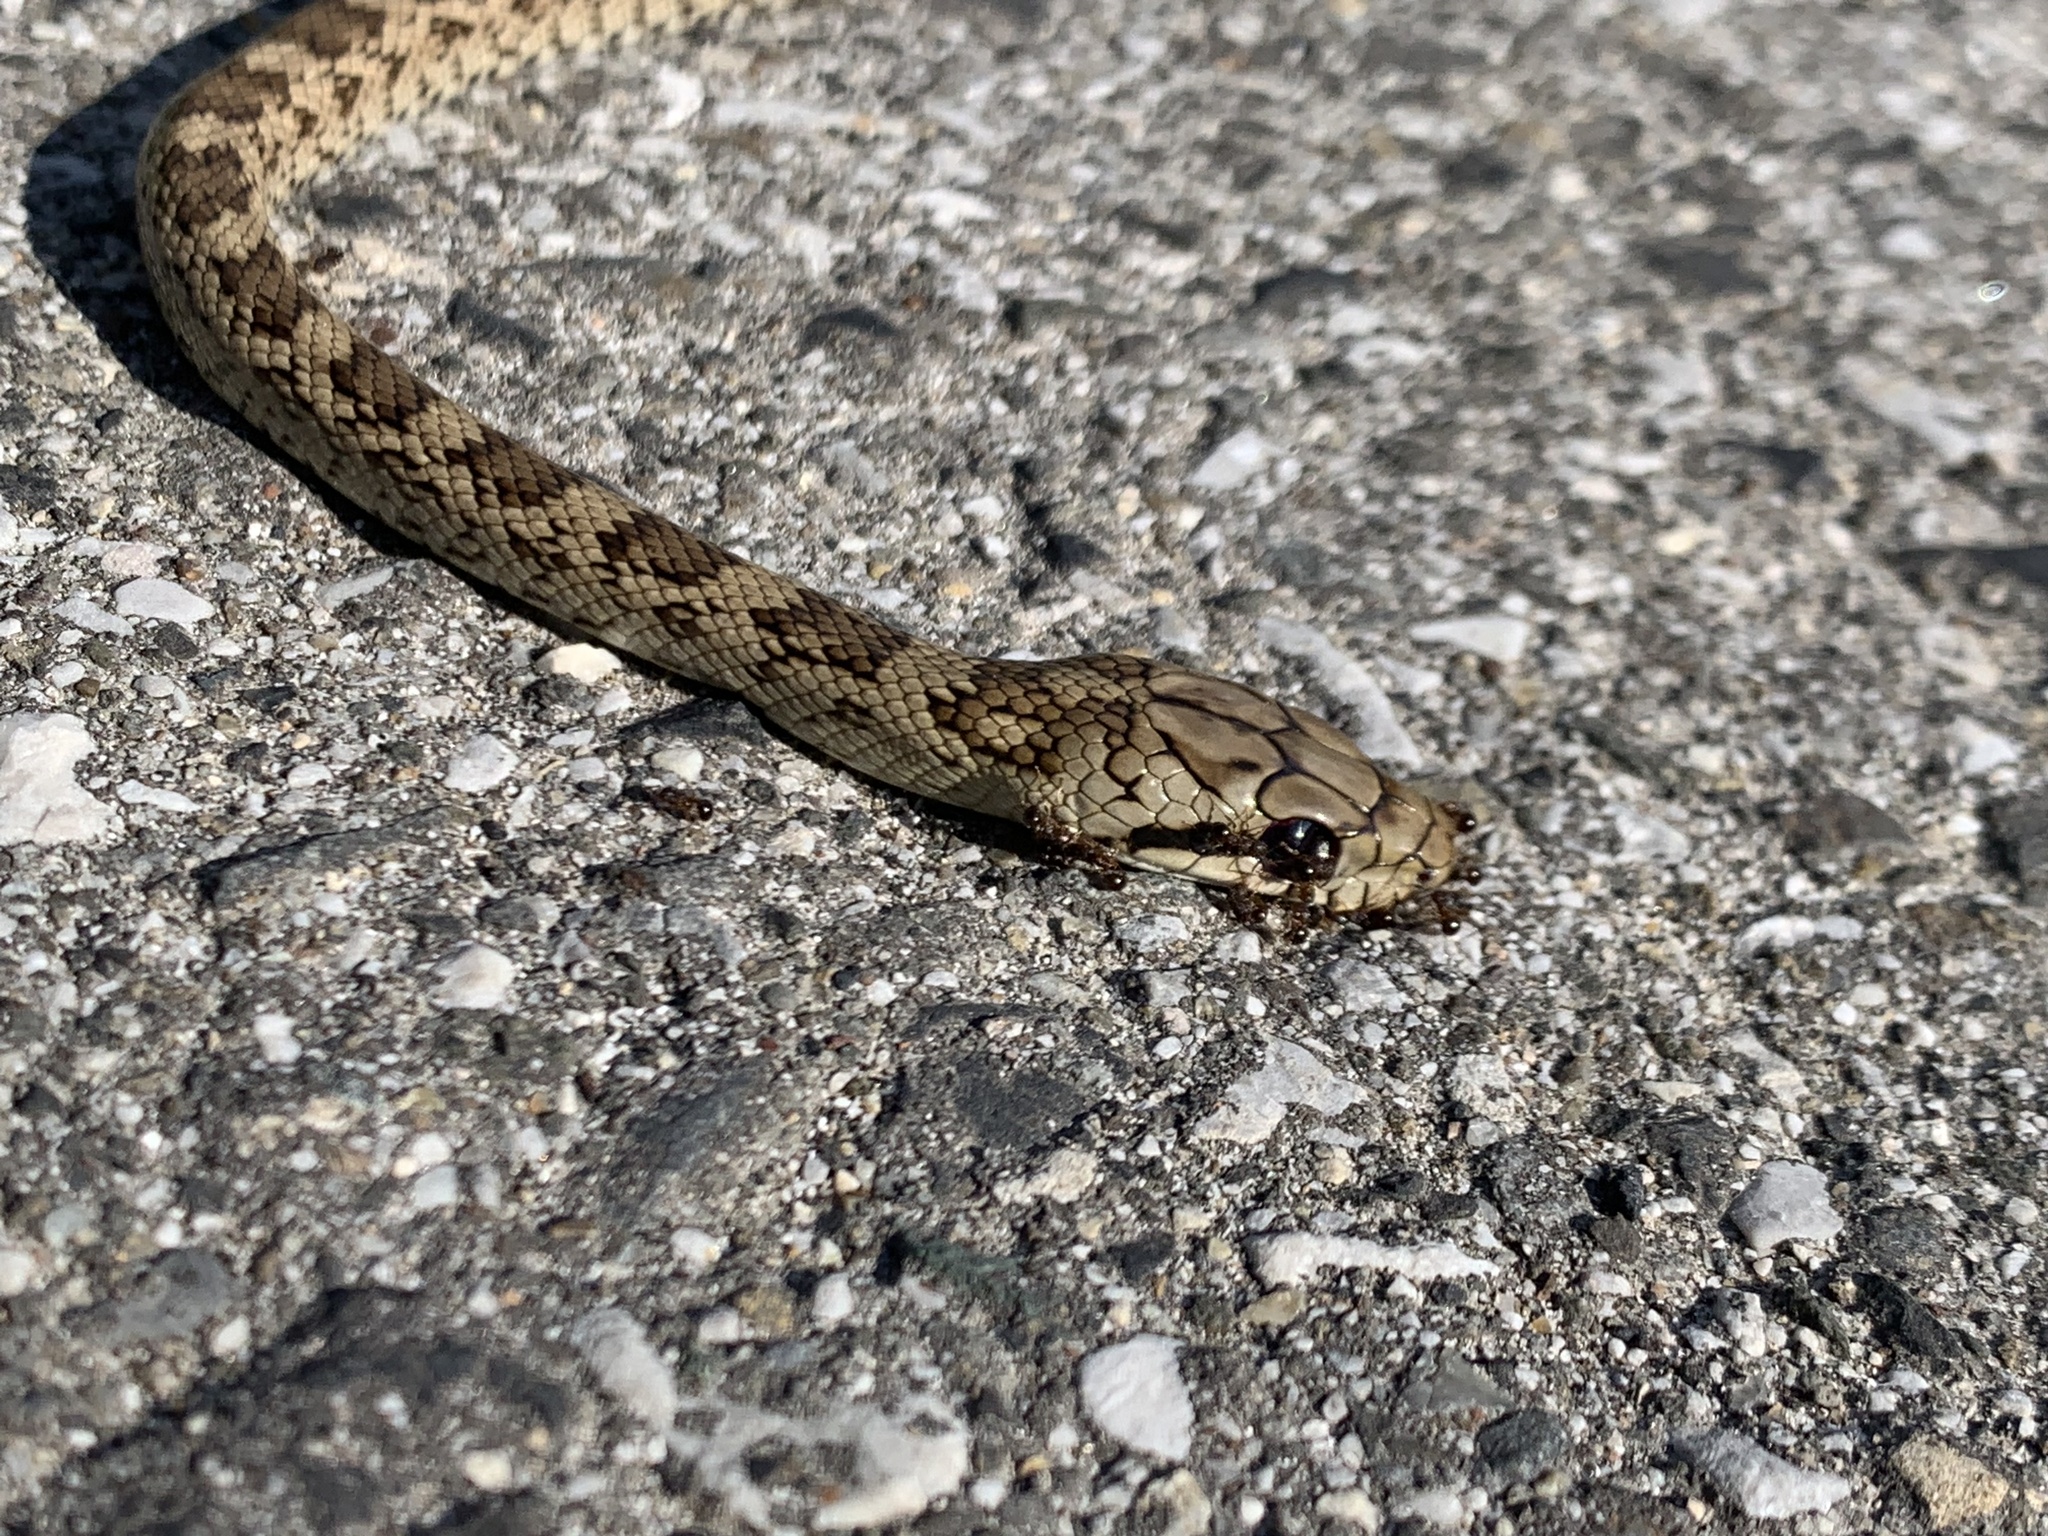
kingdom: Animalia
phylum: Chordata
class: Squamata
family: Colubridae
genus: Elaphe
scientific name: Elaphe climacophora
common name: Japanese ratsnake
